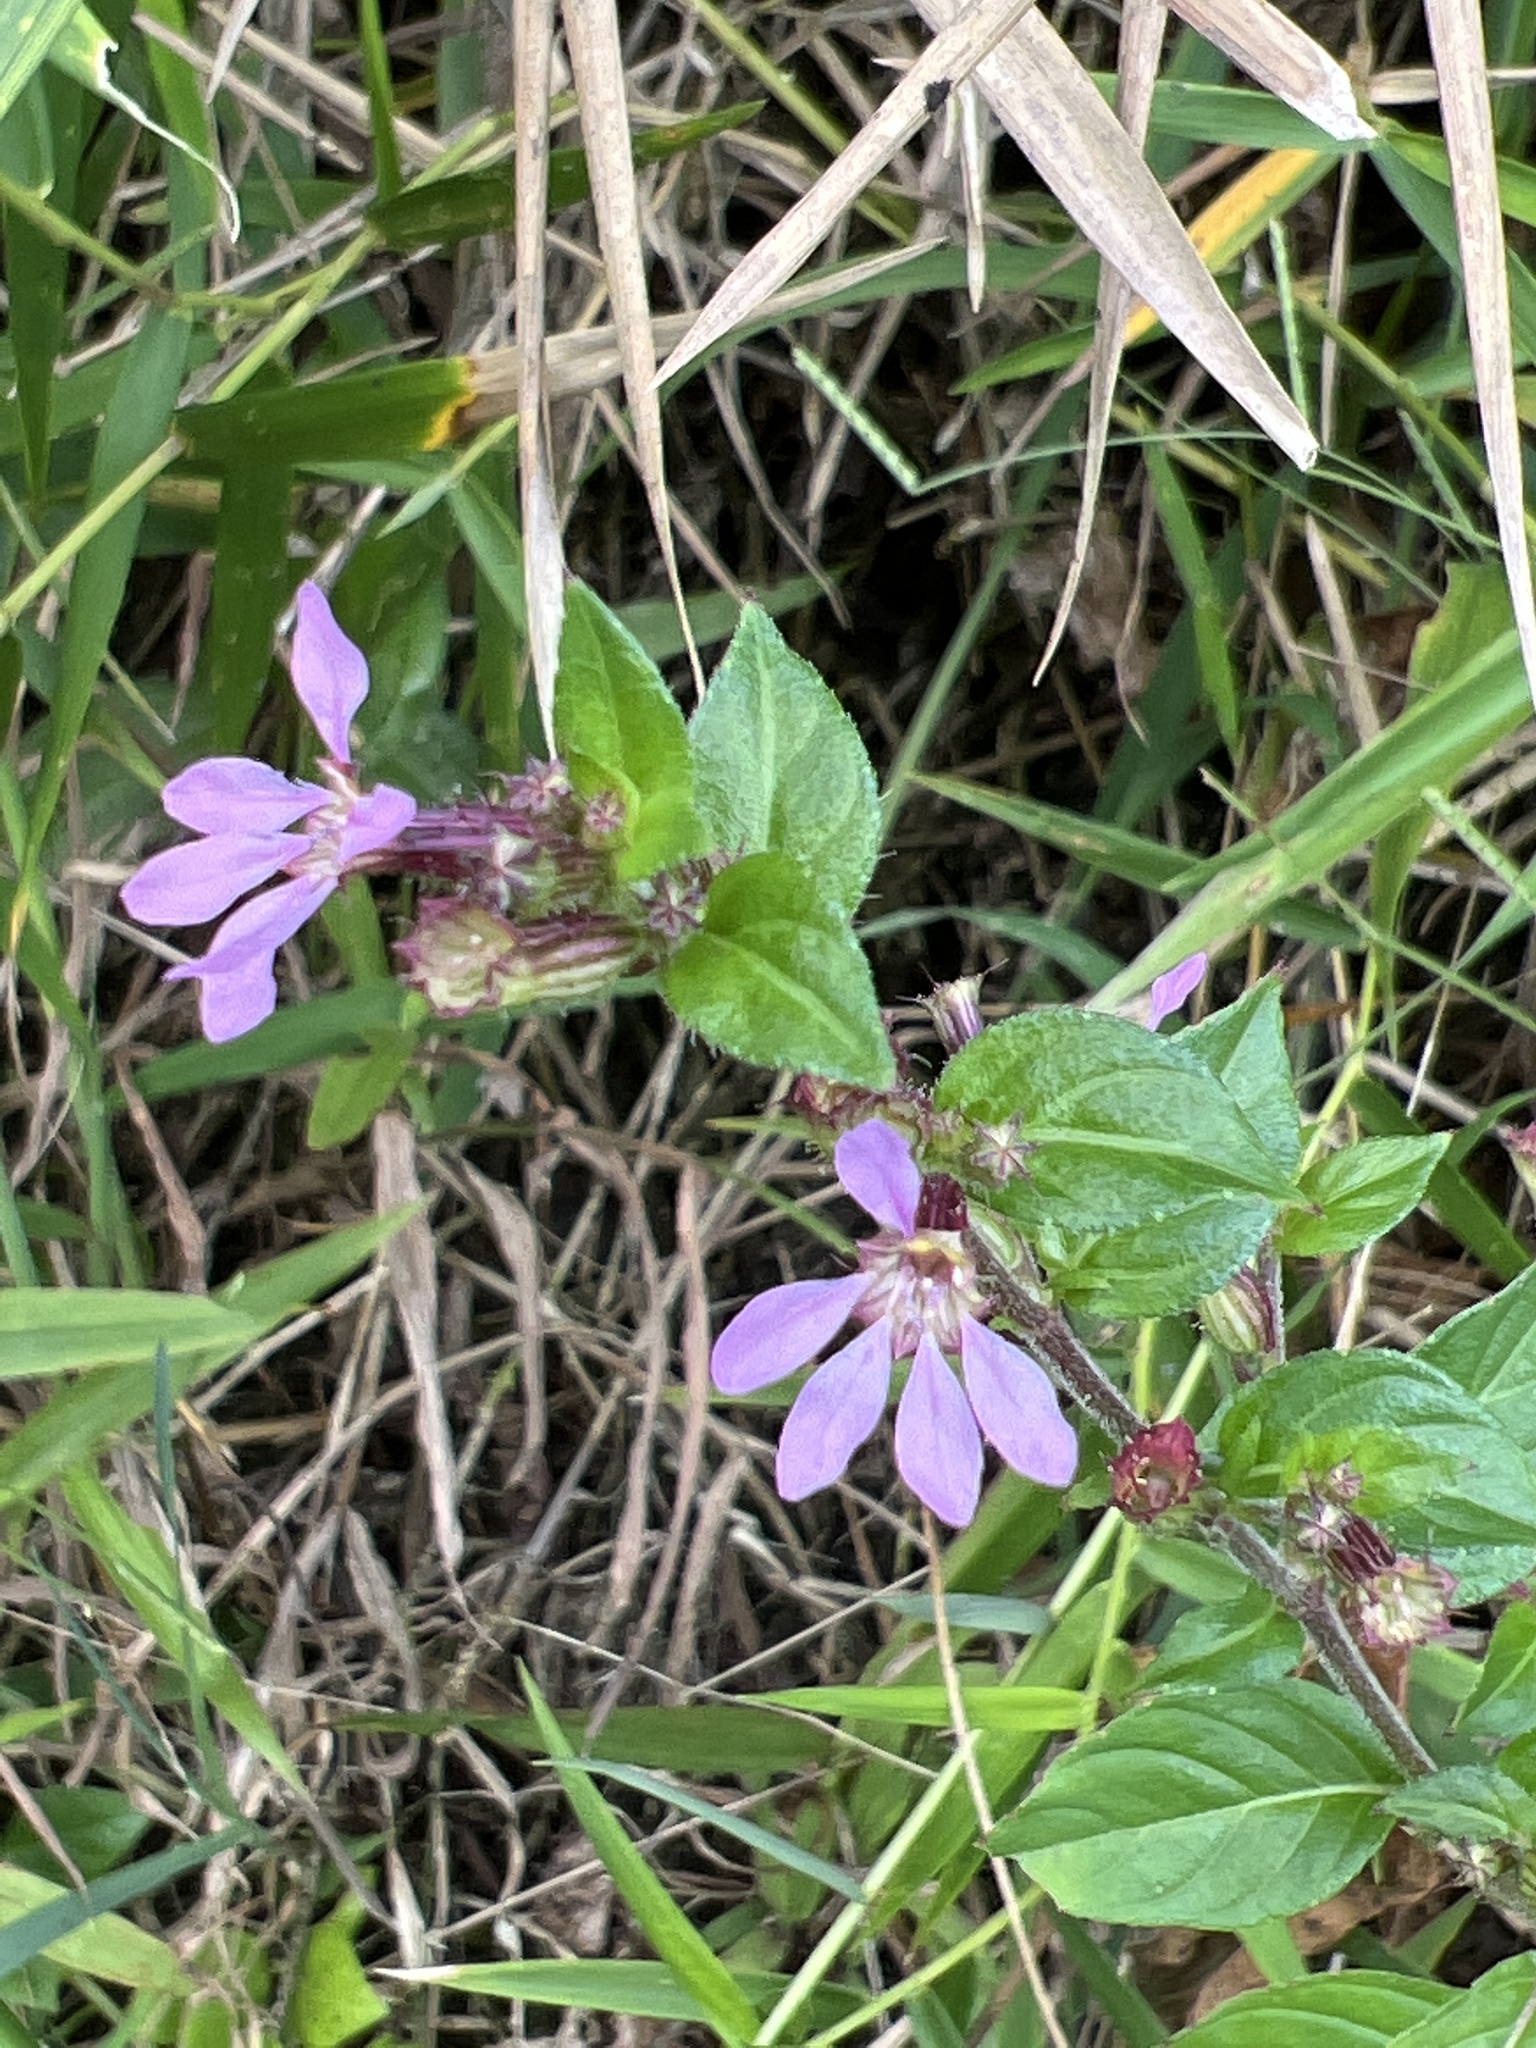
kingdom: Plantae
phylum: Tracheophyta
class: Magnoliopsida
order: Myrtales
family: Lythraceae
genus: Cuphea
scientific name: Cuphea strigulosa
